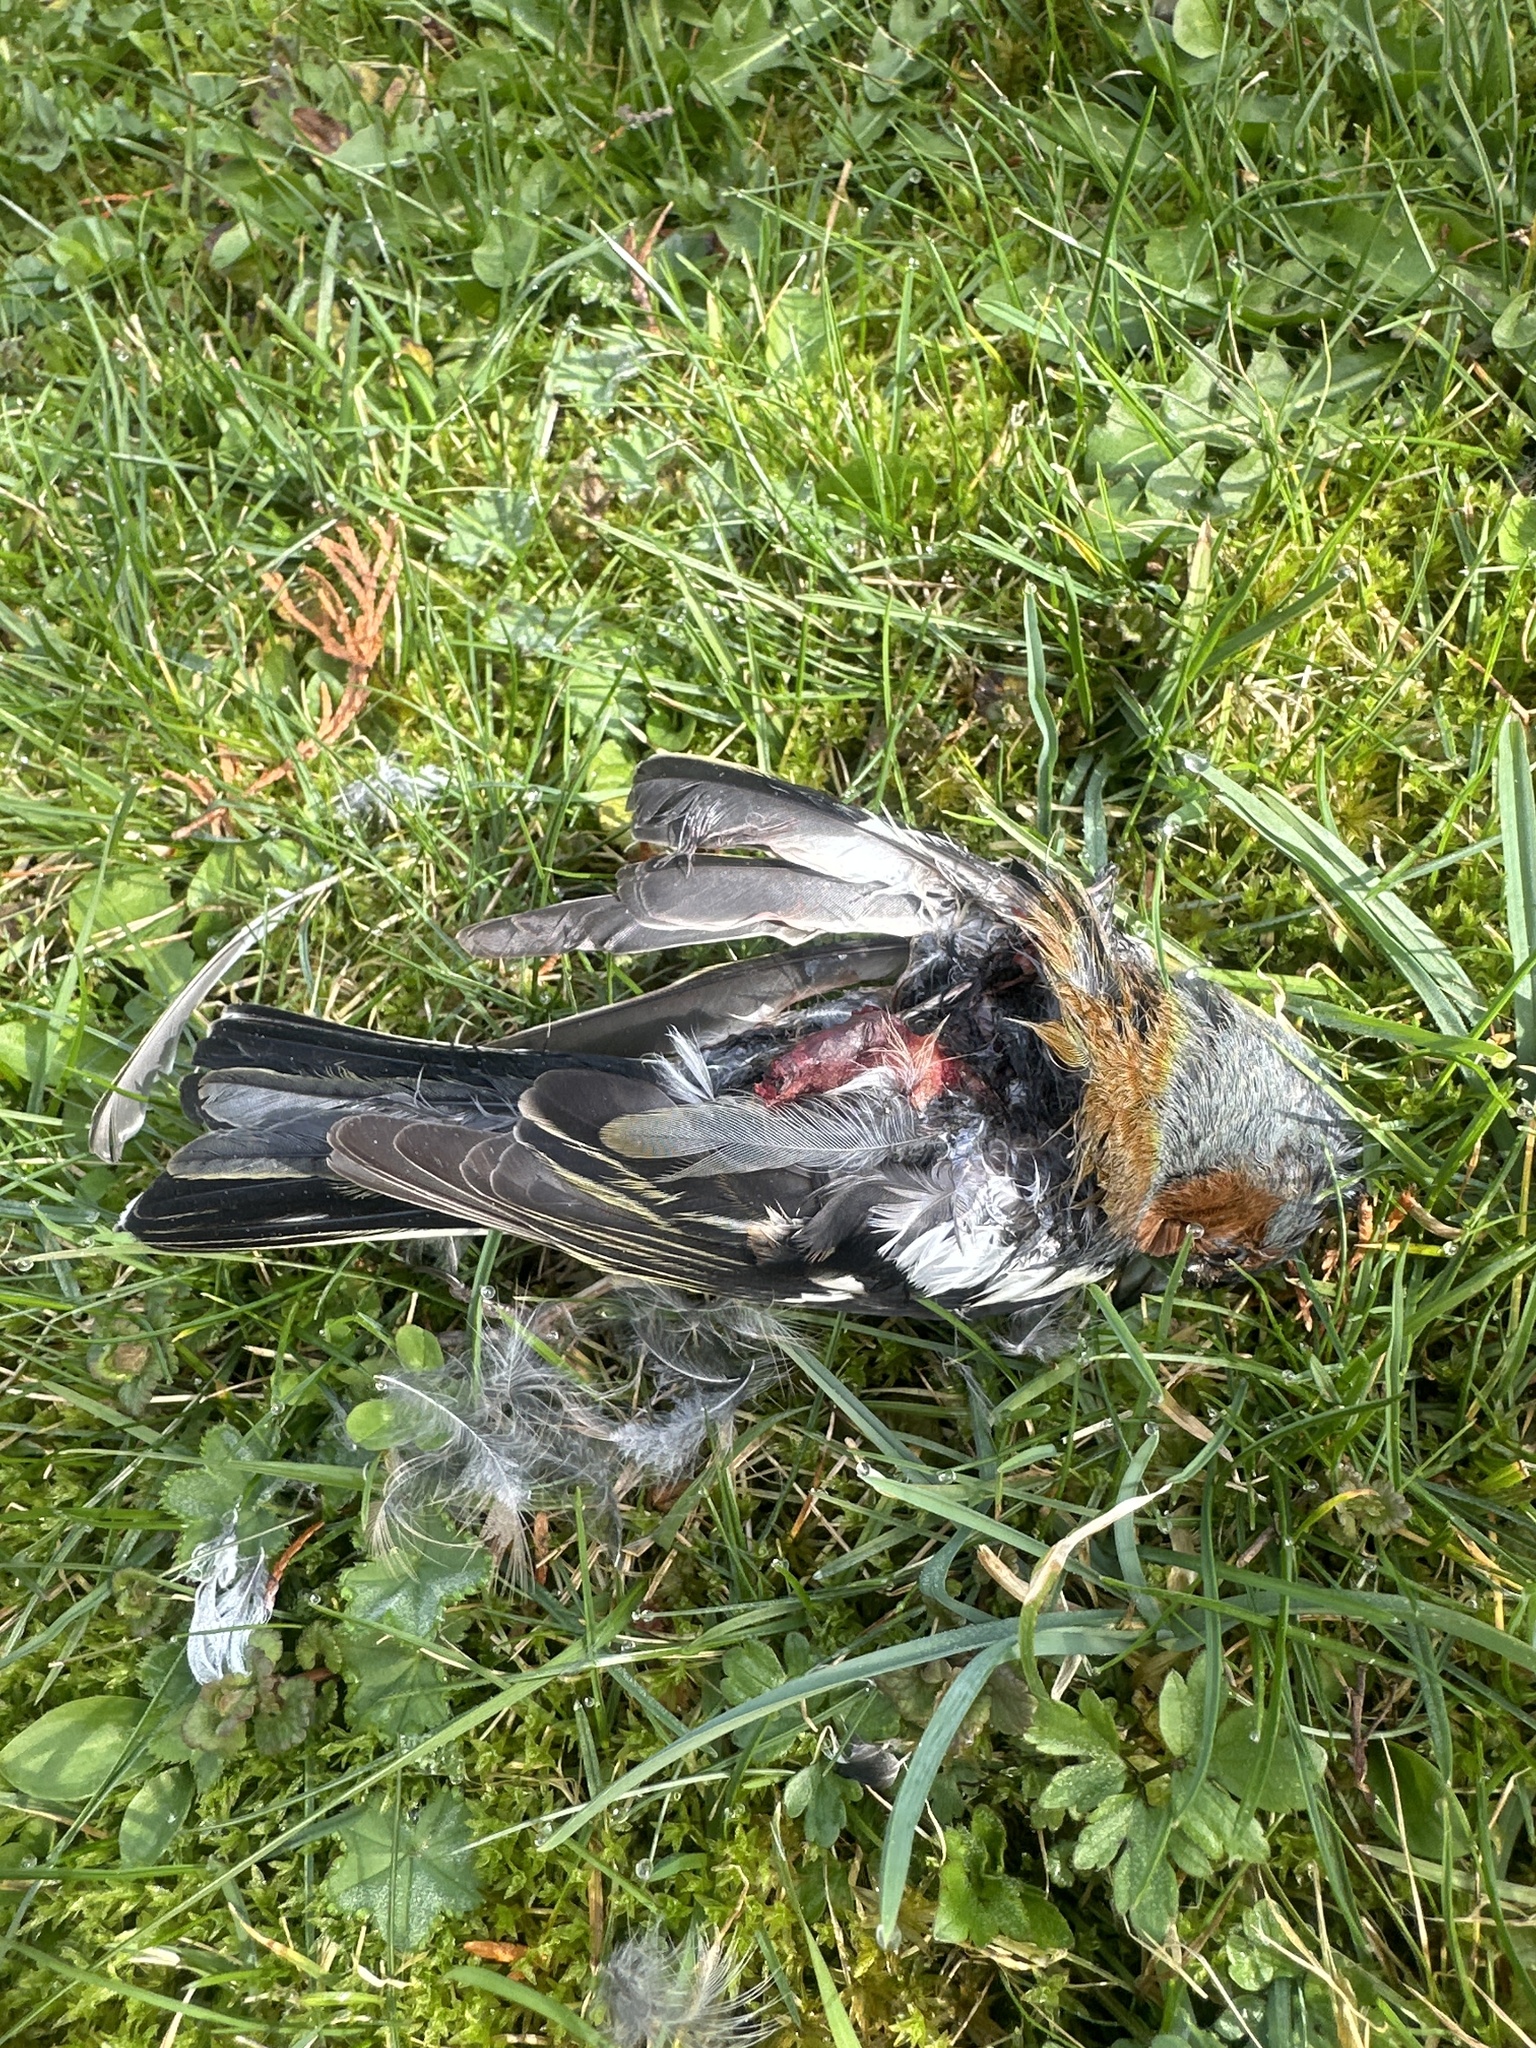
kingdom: Animalia
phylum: Chordata
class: Aves
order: Passeriformes
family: Fringillidae
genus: Fringilla
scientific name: Fringilla coelebs
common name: Common chaffinch
